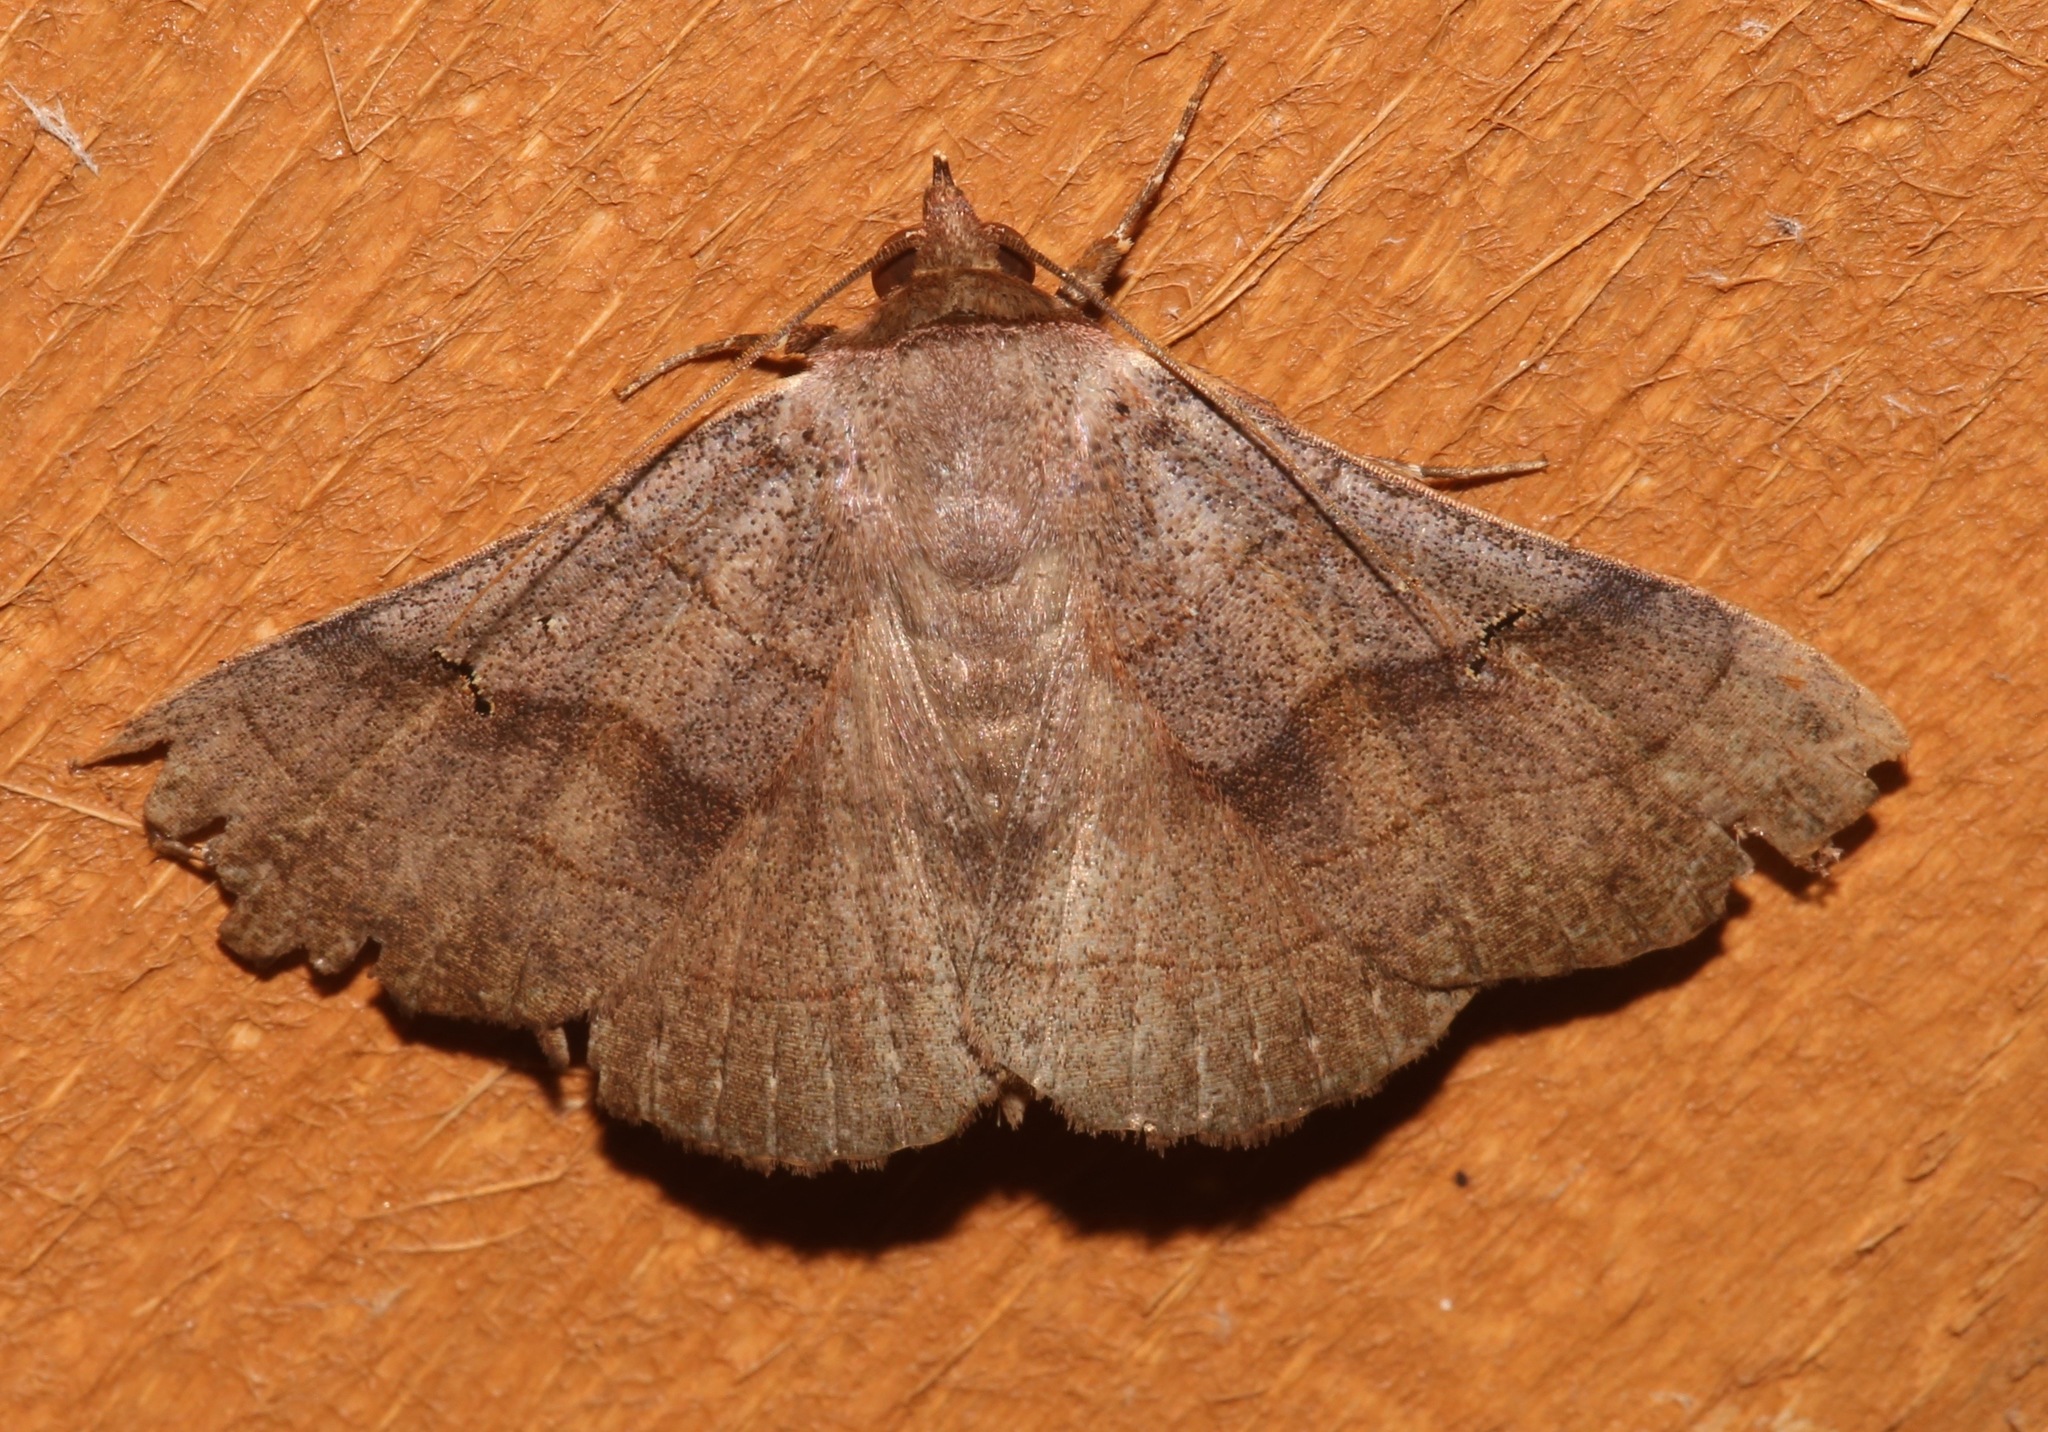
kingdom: Animalia
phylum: Arthropoda
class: Insecta
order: Lepidoptera
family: Erebidae
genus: Panopoda
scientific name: Panopoda carneicosta
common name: Brown panopoda moth
